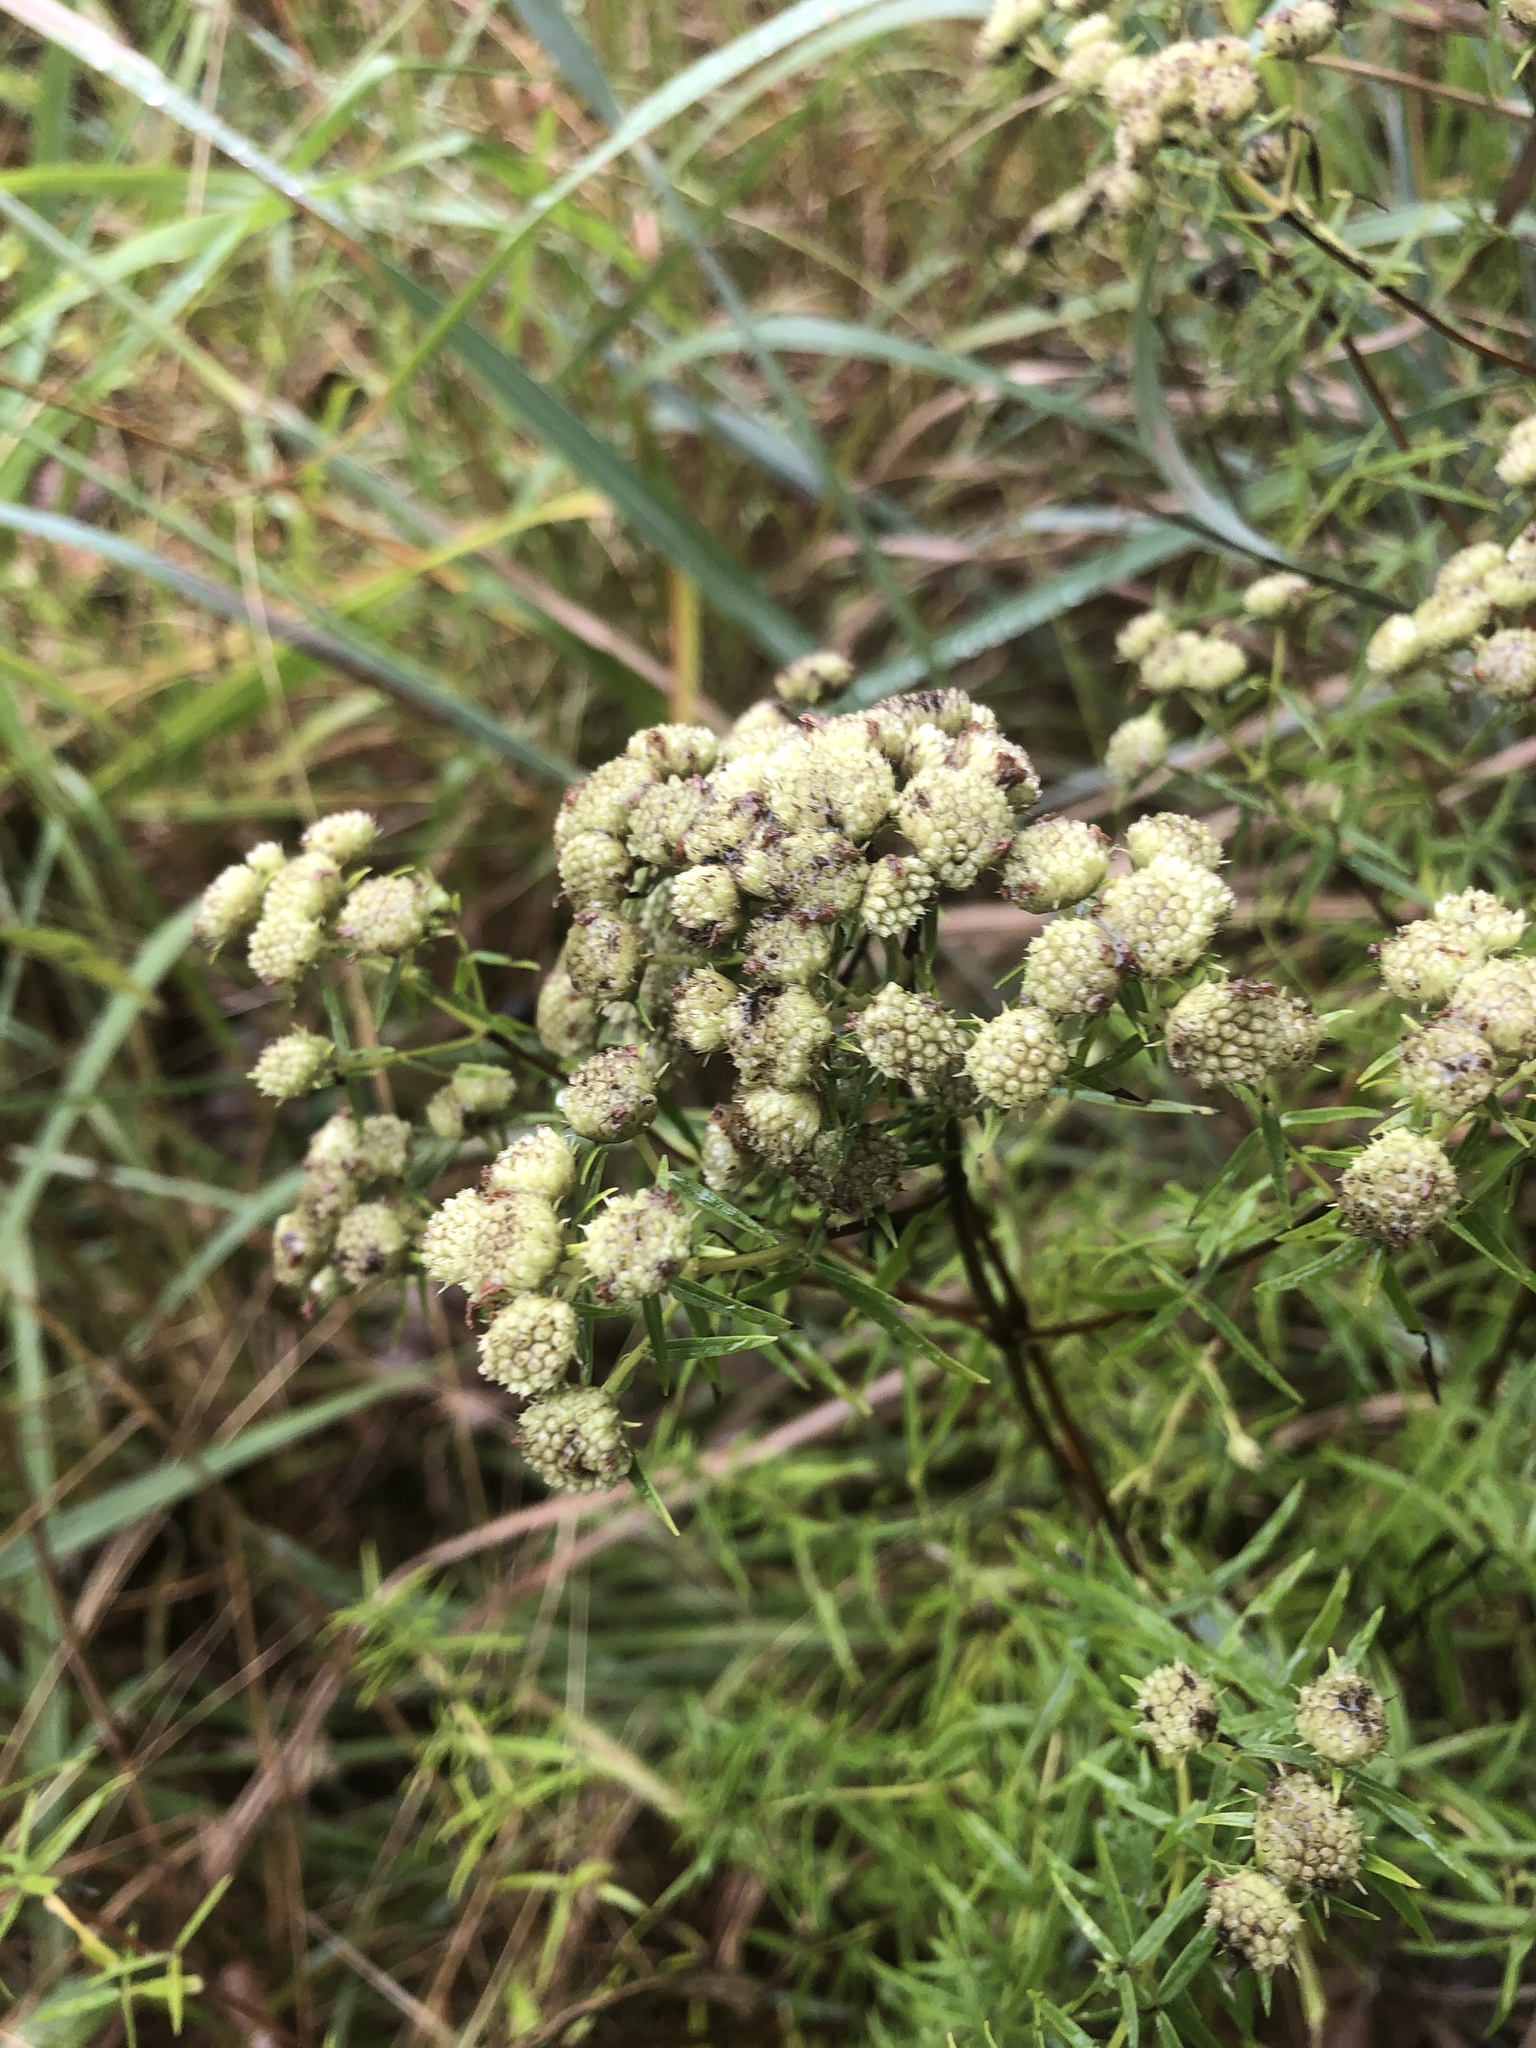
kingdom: Plantae
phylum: Tracheophyta
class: Magnoliopsida
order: Lamiales
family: Lamiaceae
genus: Pycnanthemum
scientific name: Pycnanthemum tenuifolium
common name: Narrow-leaf mountain-mint
